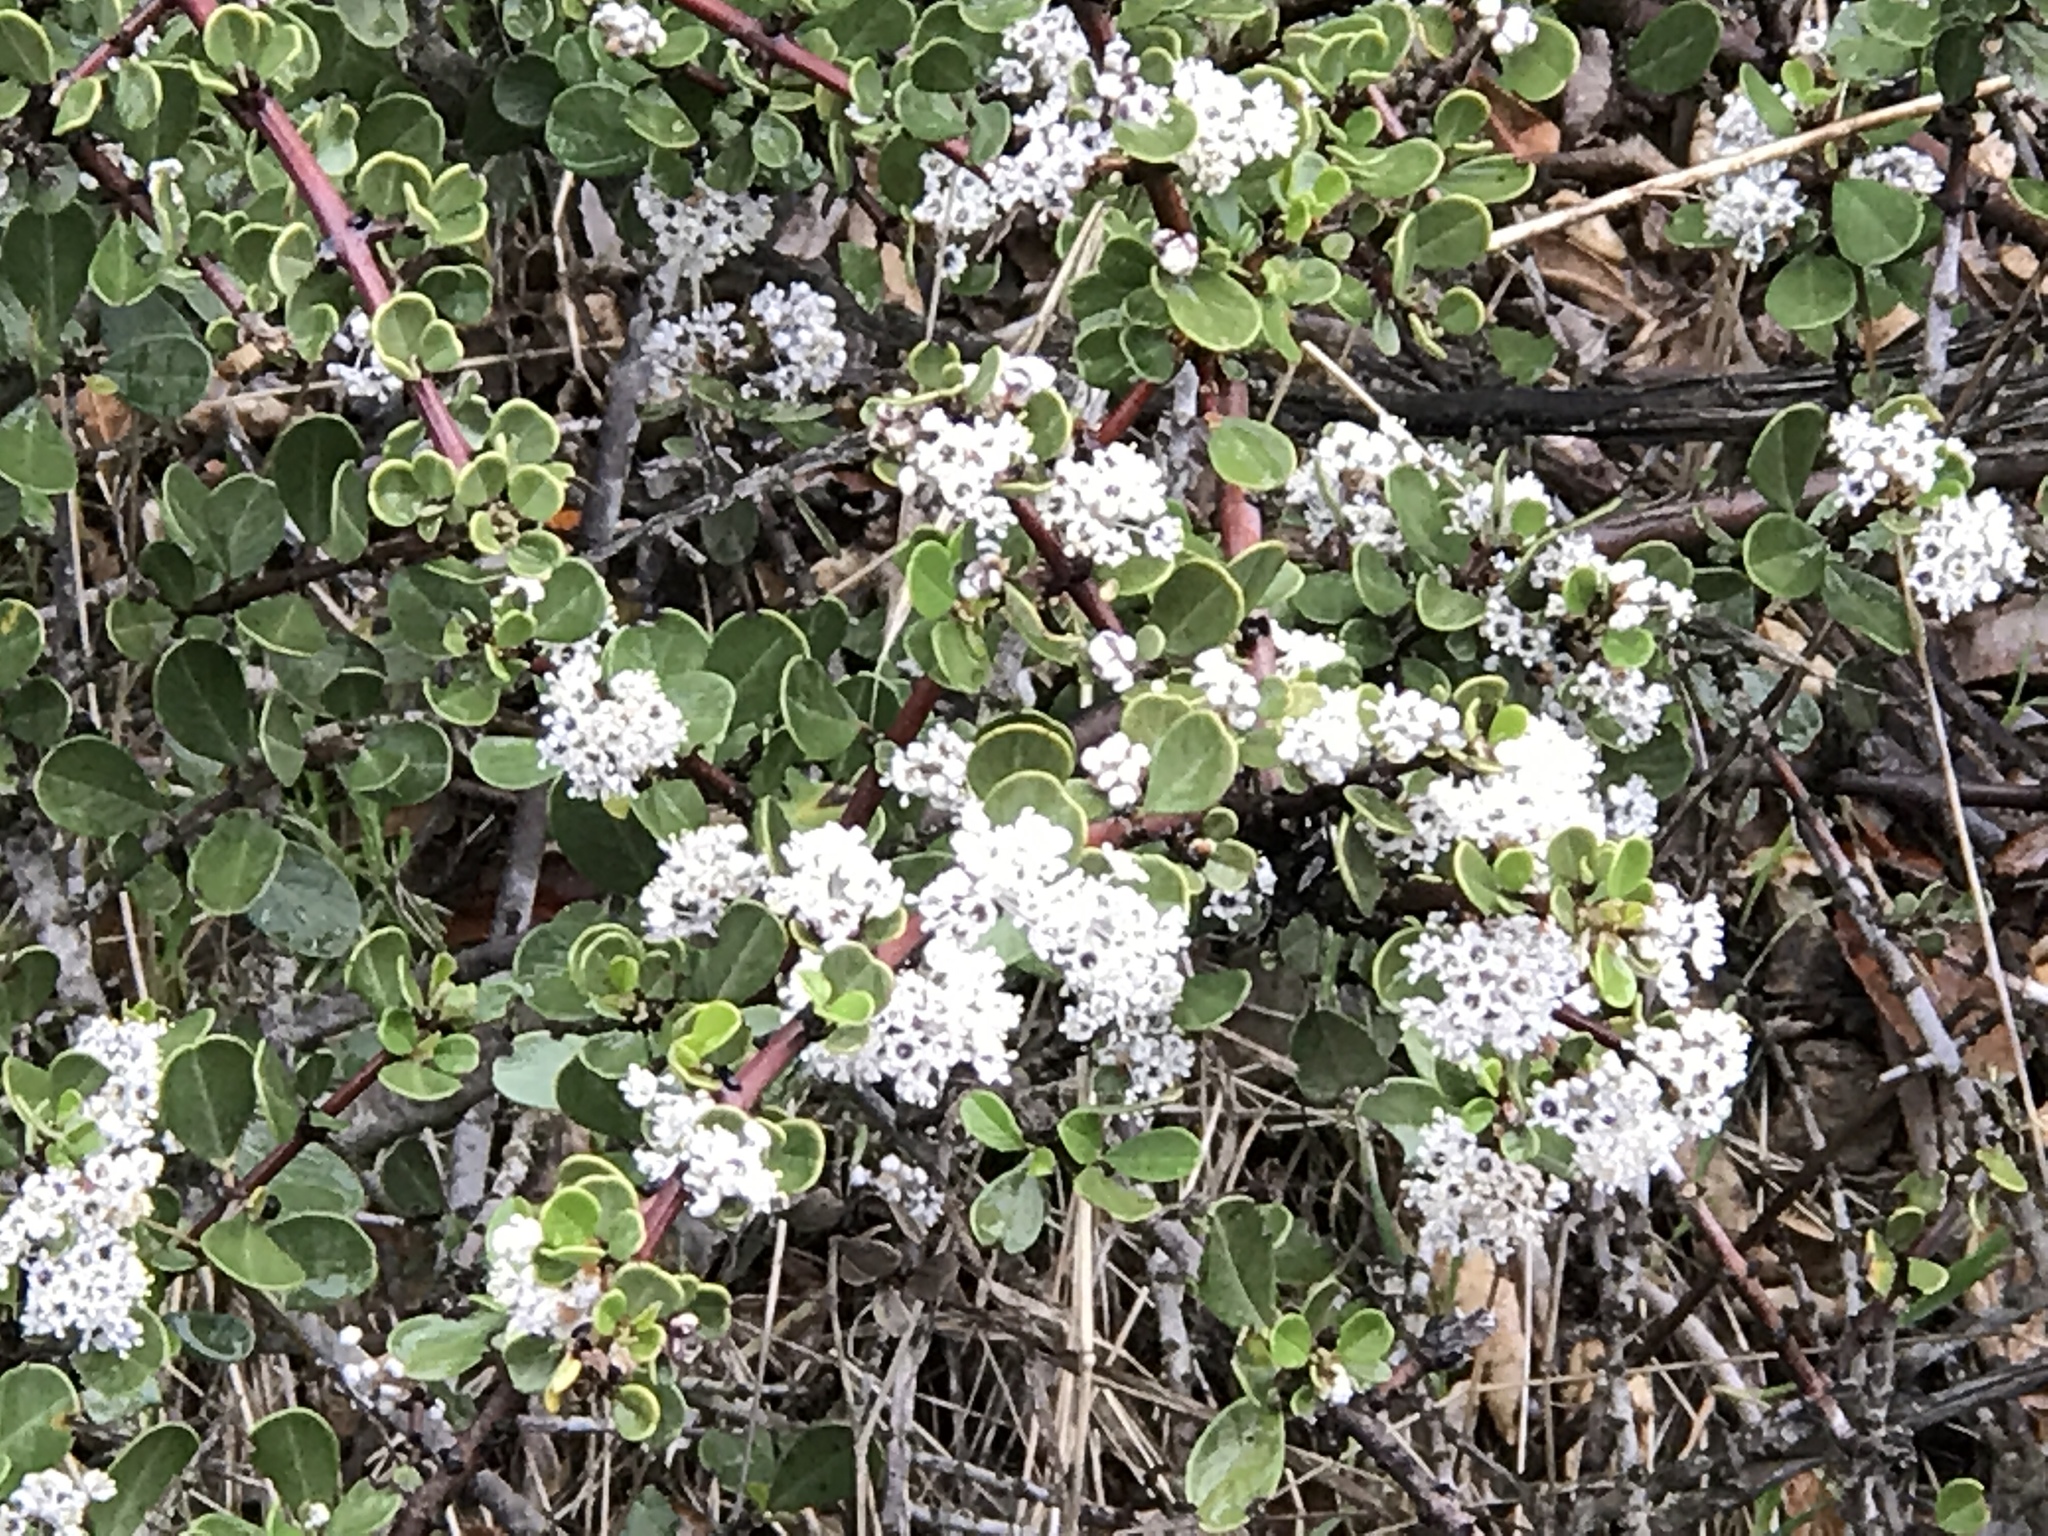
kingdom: Plantae
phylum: Tracheophyta
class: Magnoliopsida
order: Rosales
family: Rhamnaceae
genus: Ceanothus
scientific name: Ceanothus cuneatus
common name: Cuneate ceanothus
